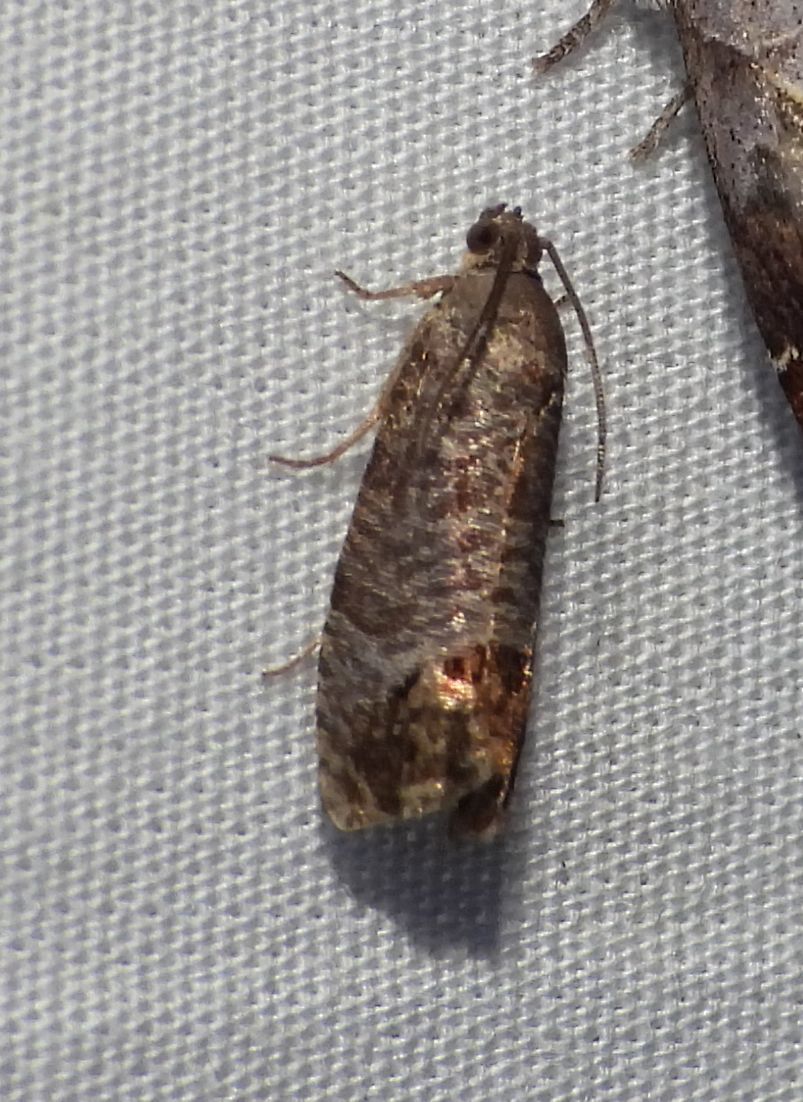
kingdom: Animalia
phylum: Arthropoda
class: Insecta
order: Lepidoptera
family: Tortricidae
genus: Cydia
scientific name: Cydia pomonella
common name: Codling moth
